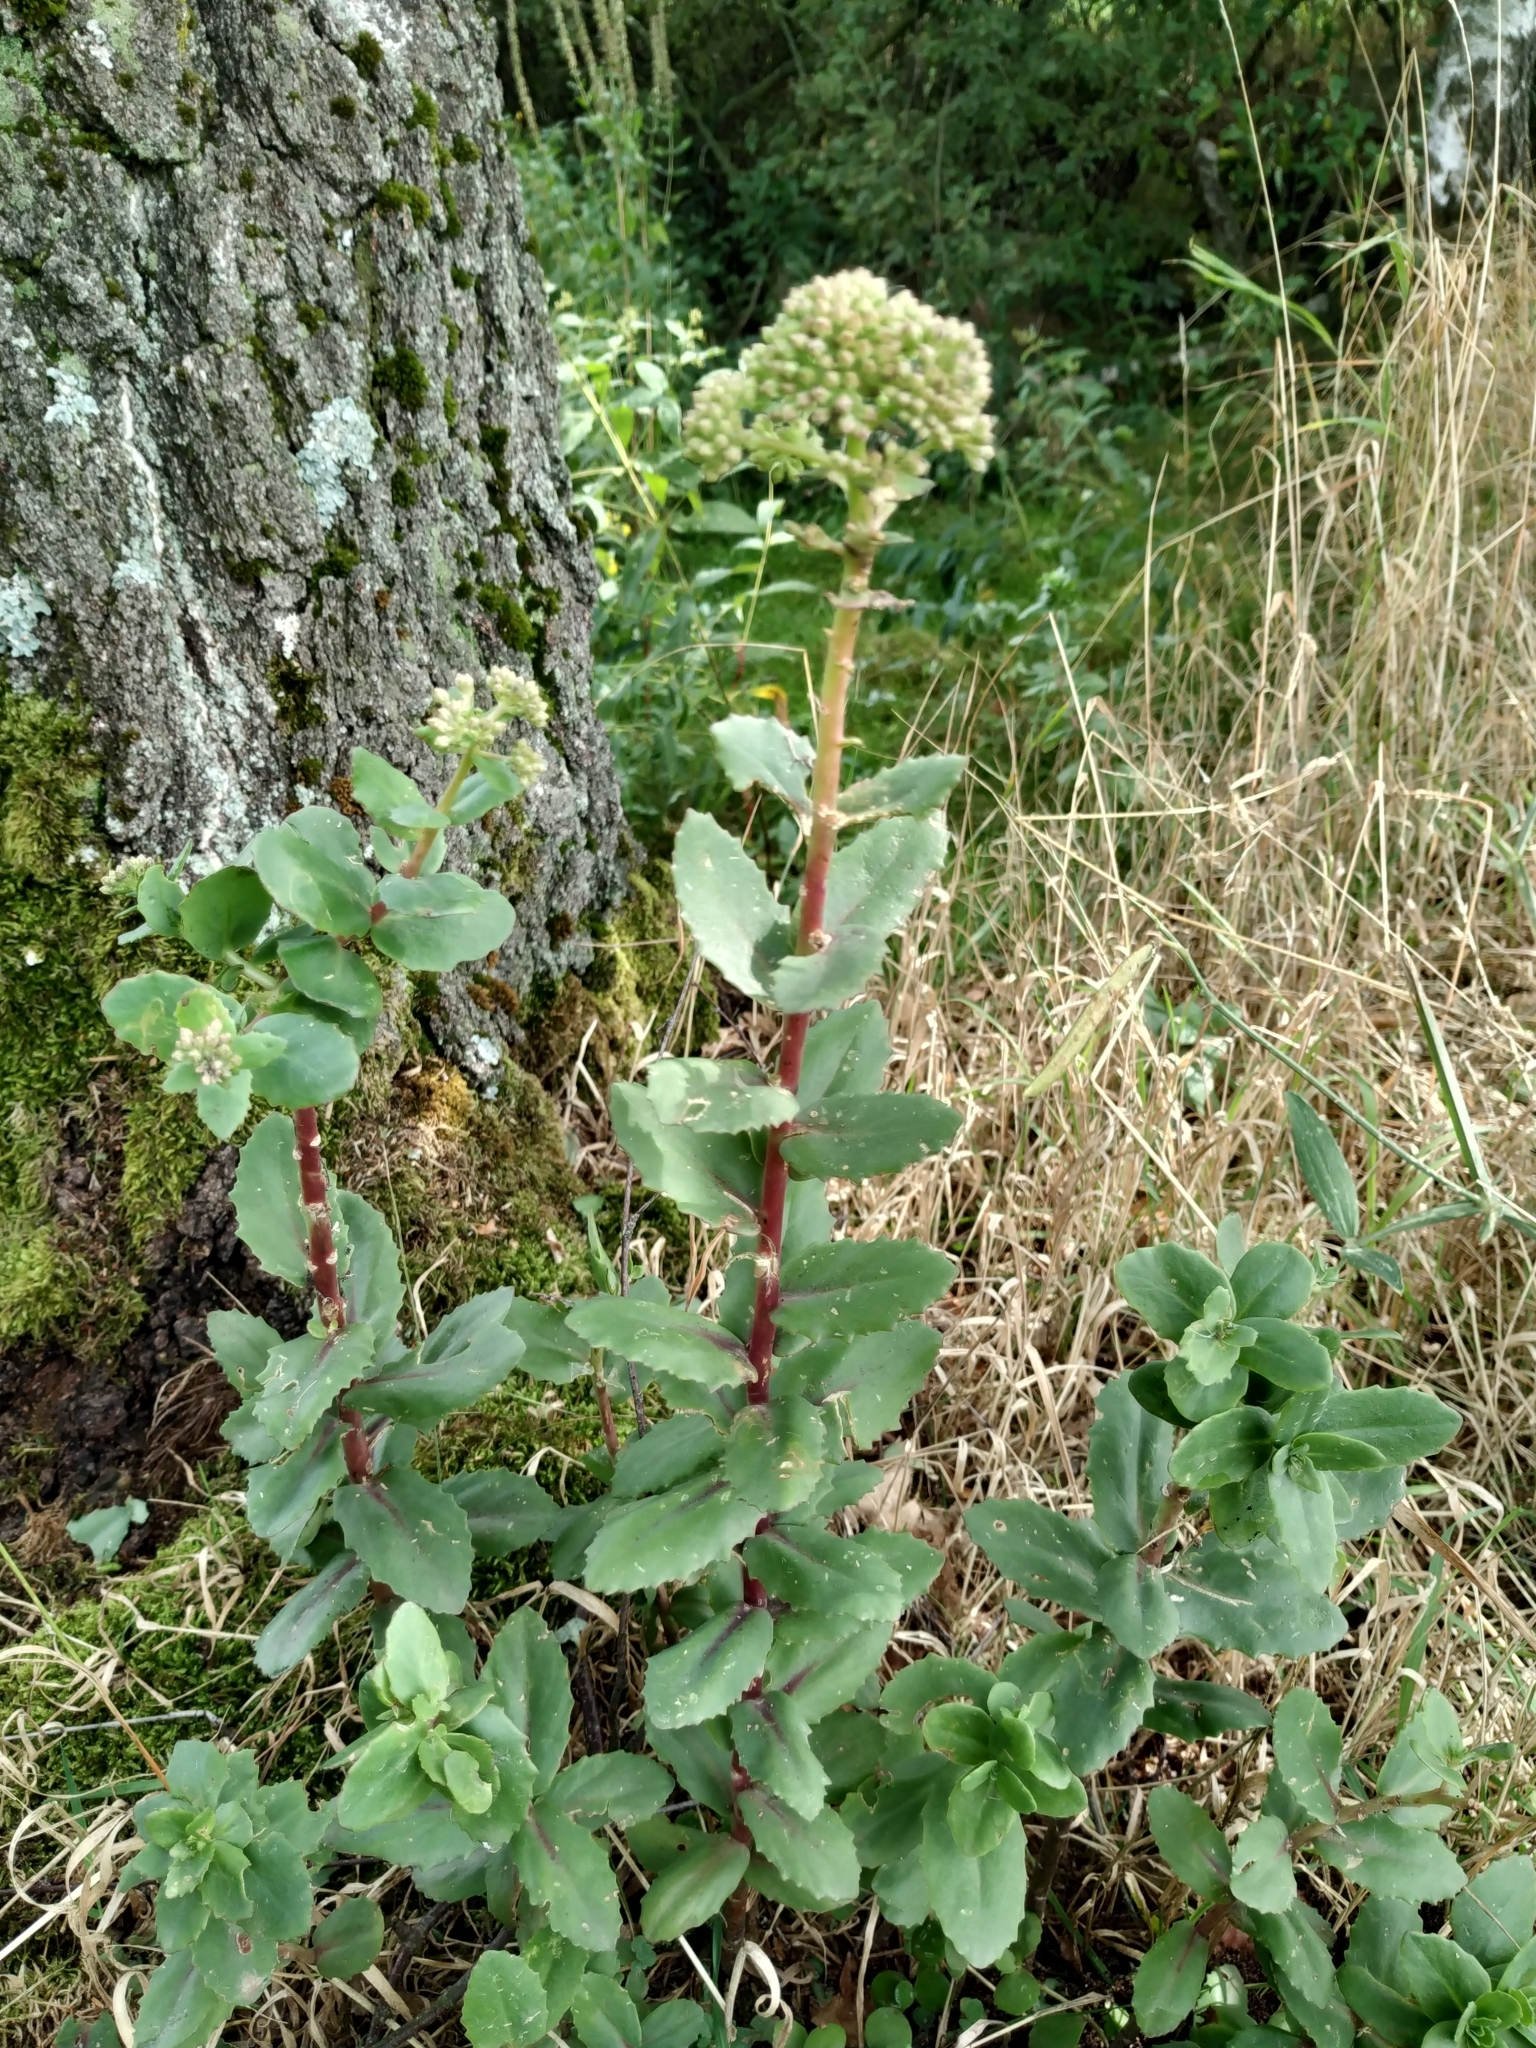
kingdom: Plantae
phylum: Tracheophyta
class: Magnoliopsida
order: Saxifragales
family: Crassulaceae
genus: Hylotelephium
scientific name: Hylotelephium maximum
